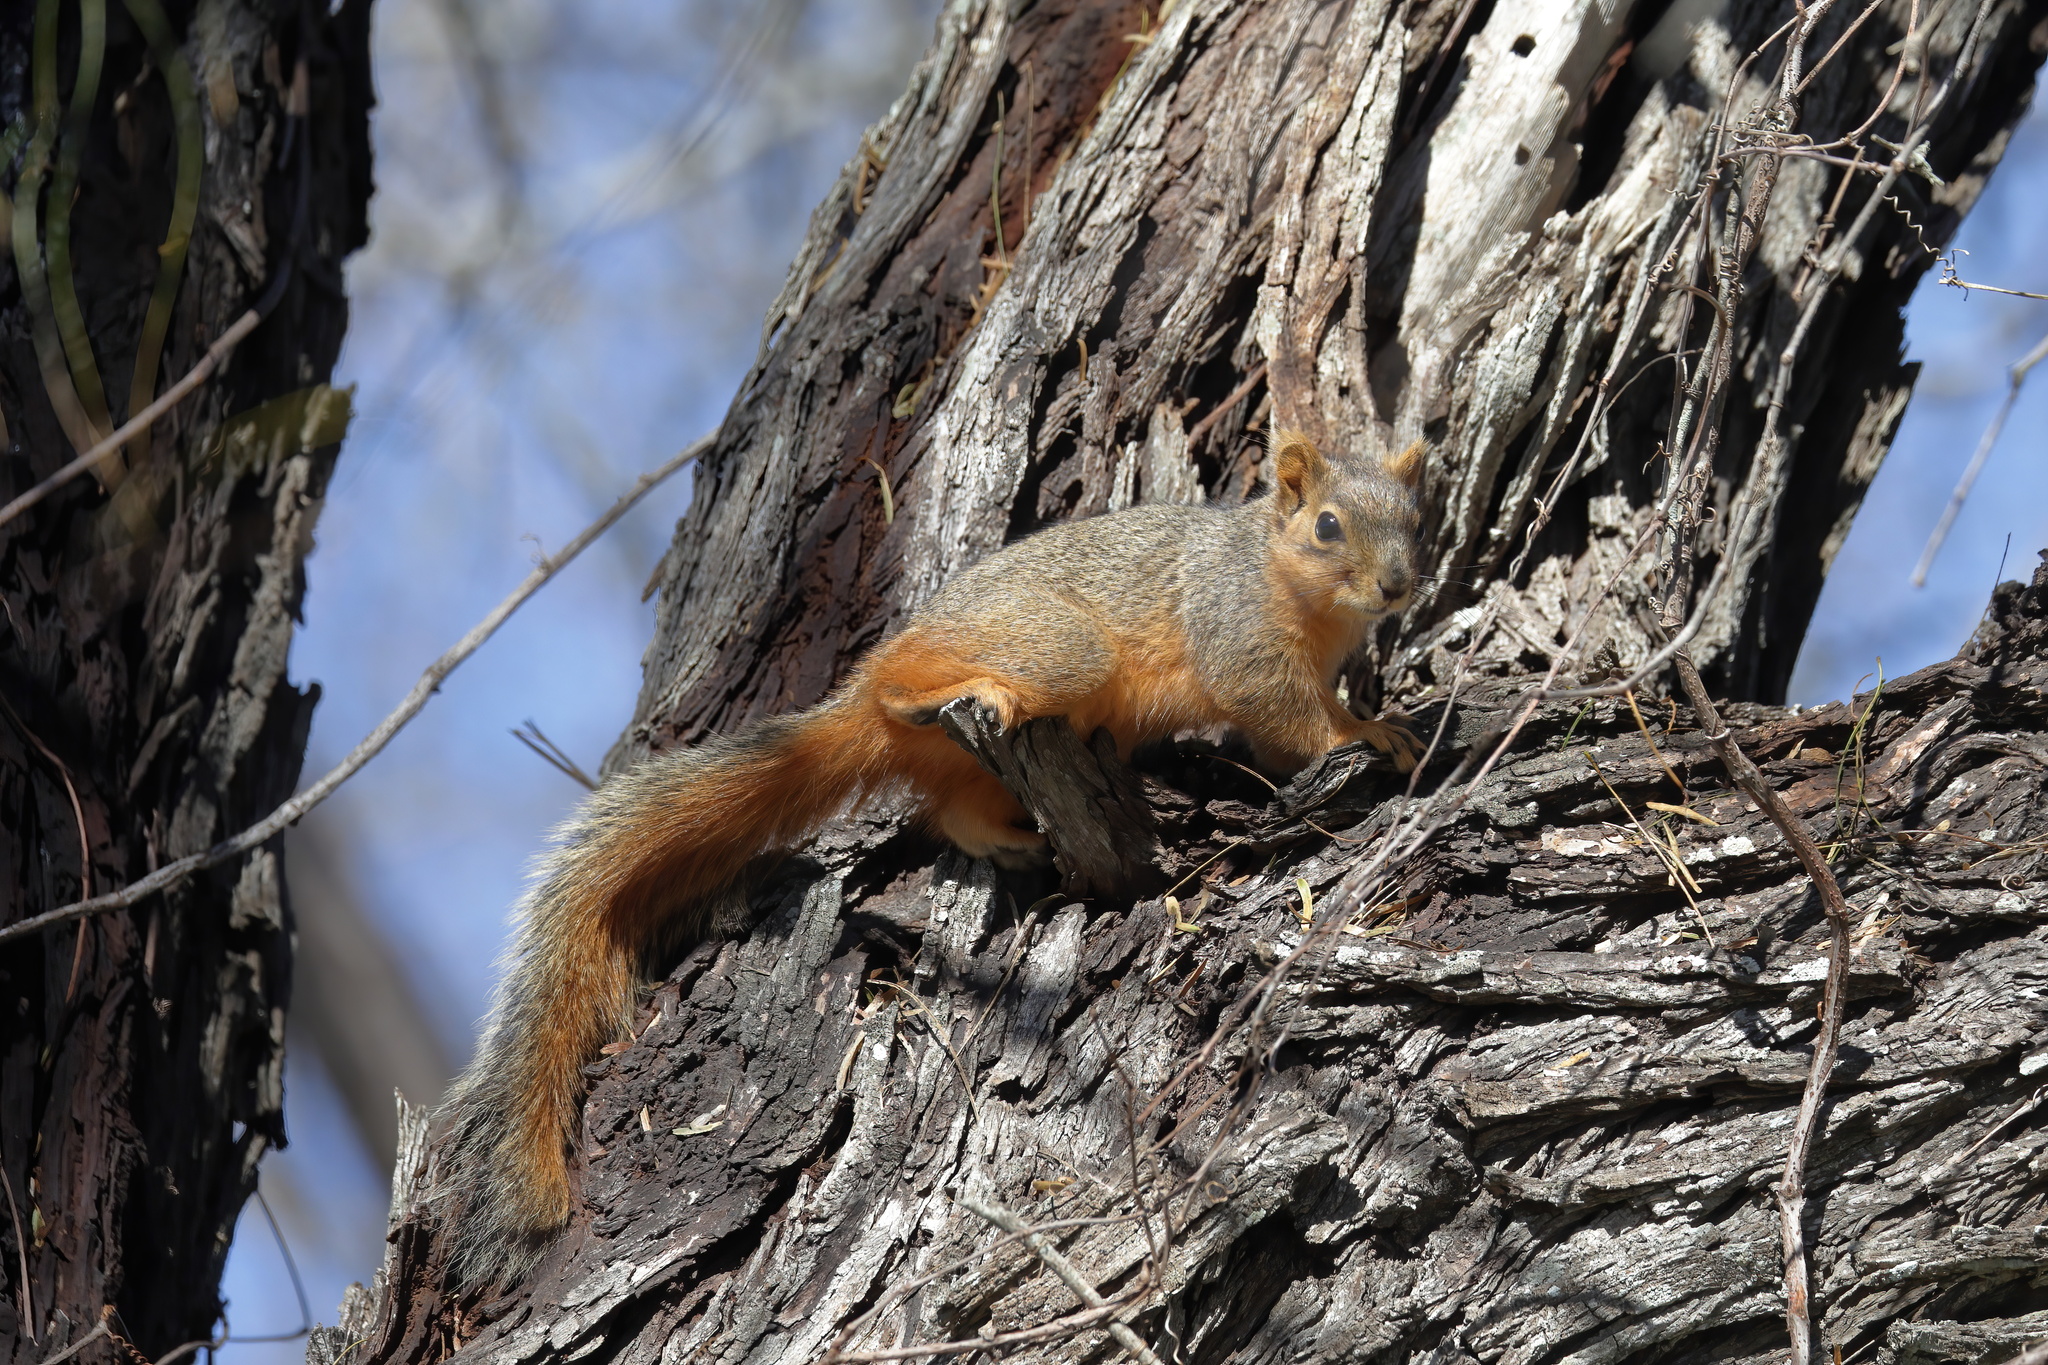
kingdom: Animalia
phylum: Chordata
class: Mammalia
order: Rodentia
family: Sciuridae
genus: Sciurus
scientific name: Sciurus niger
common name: Fox squirrel
